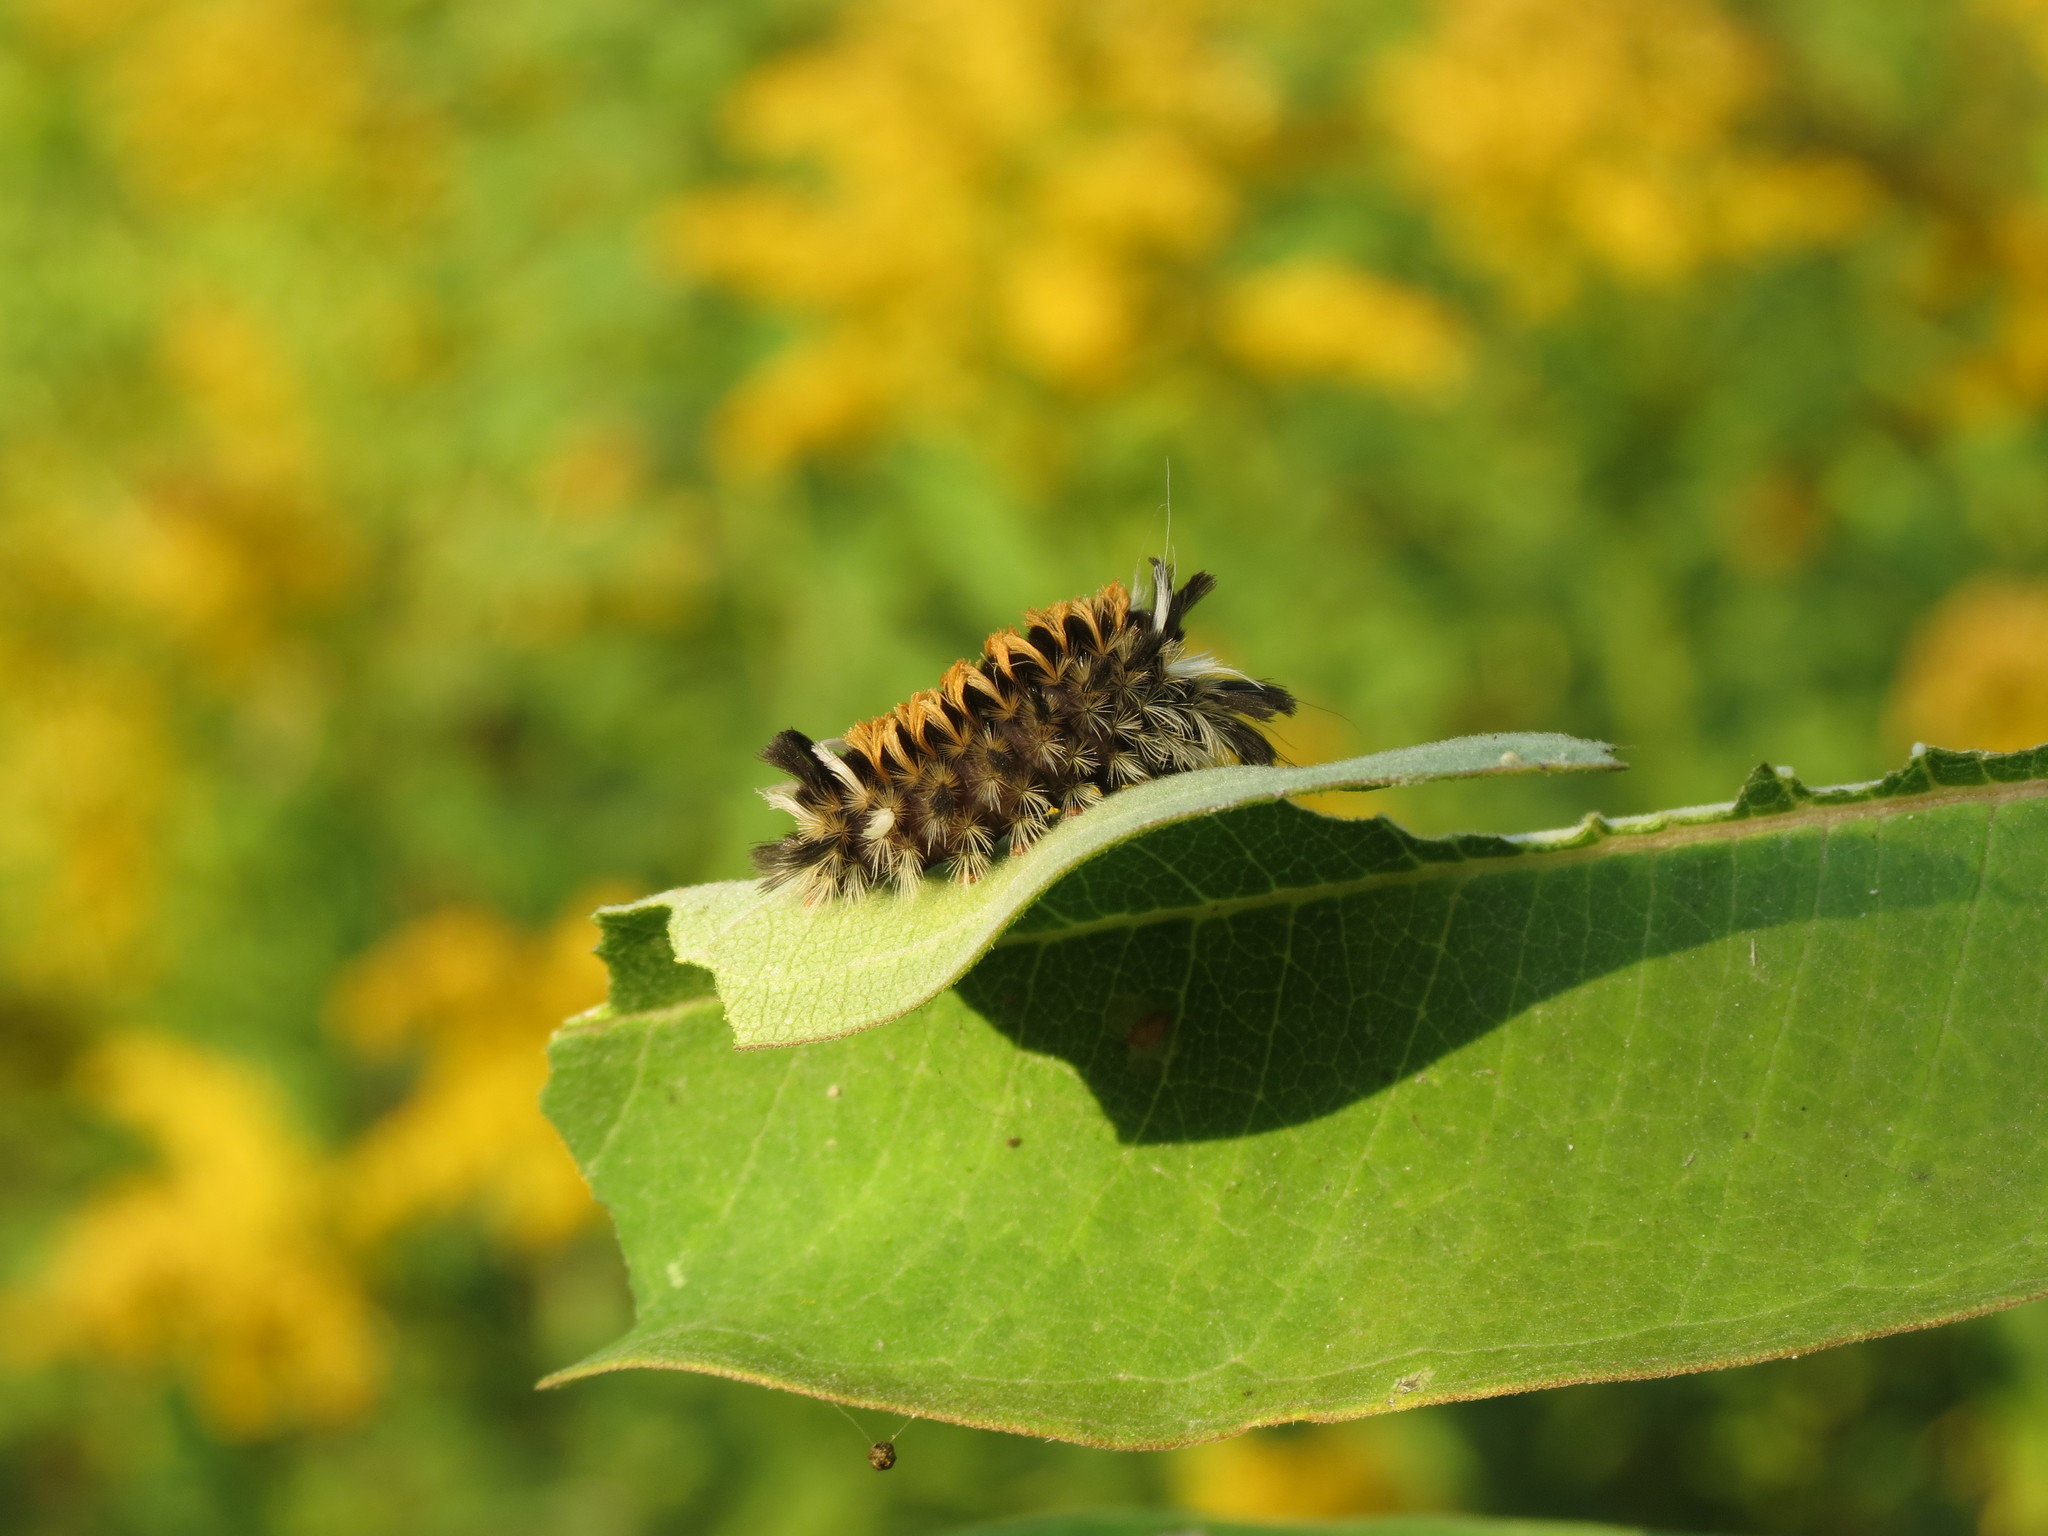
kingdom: Animalia
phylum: Arthropoda
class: Insecta
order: Lepidoptera
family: Erebidae
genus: Euchaetes
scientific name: Euchaetes egle
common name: Milkweed tussock moth
